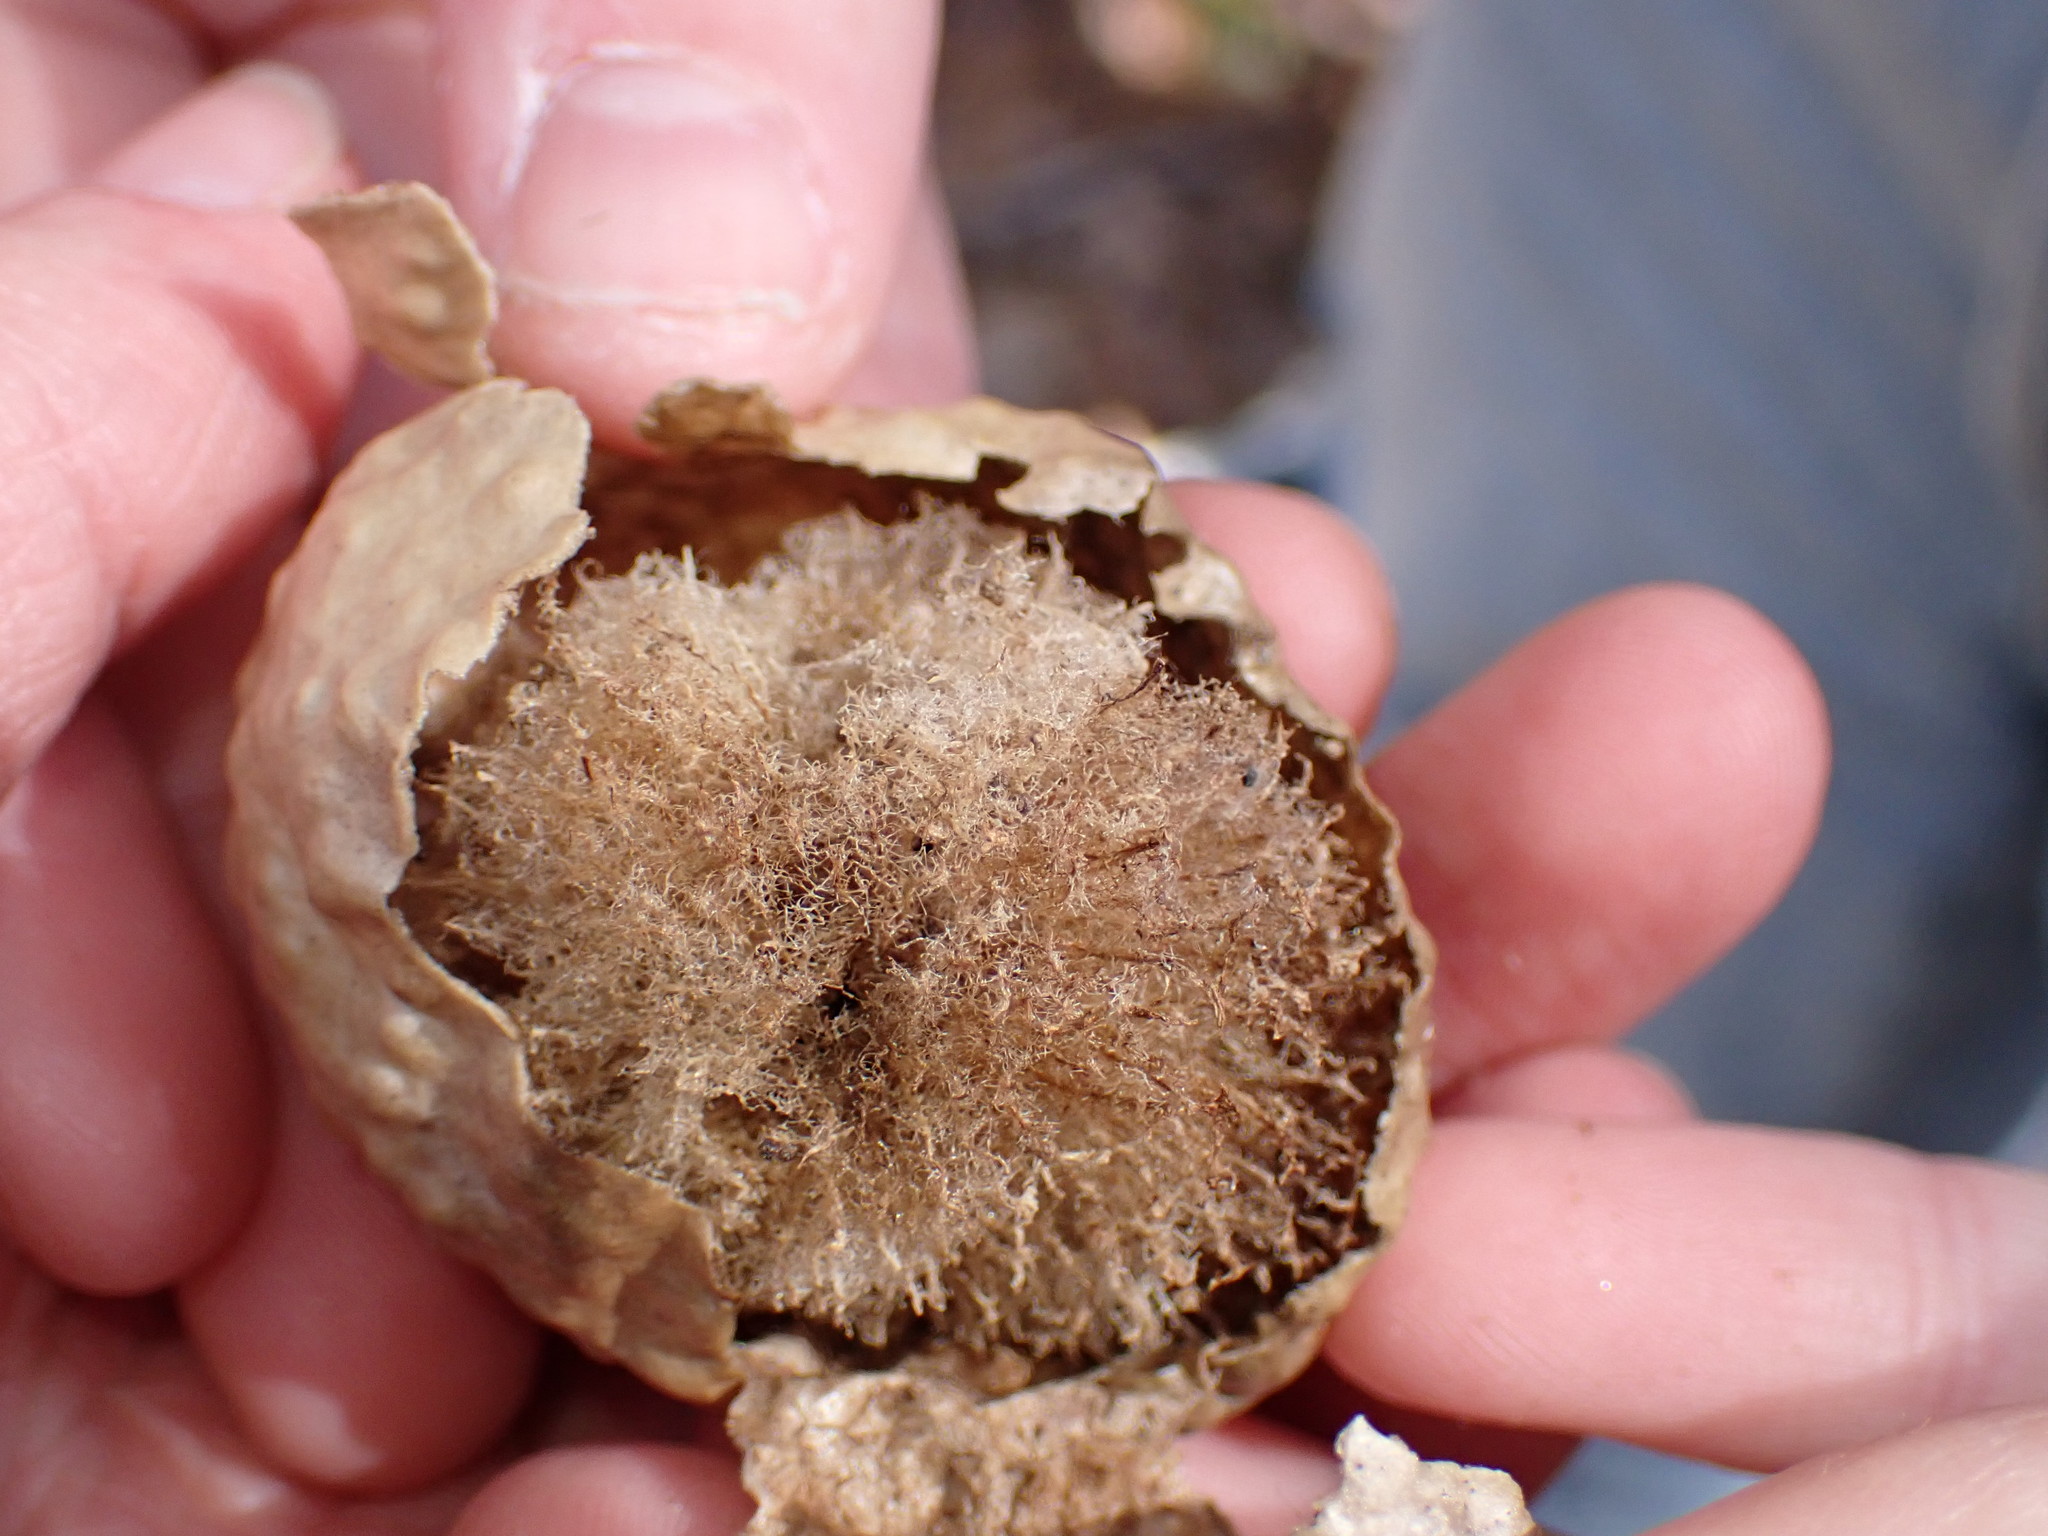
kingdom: Animalia
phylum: Arthropoda
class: Insecta
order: Hymenoptera
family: Cynipidae
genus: Amphibolips
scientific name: Amphibolips
